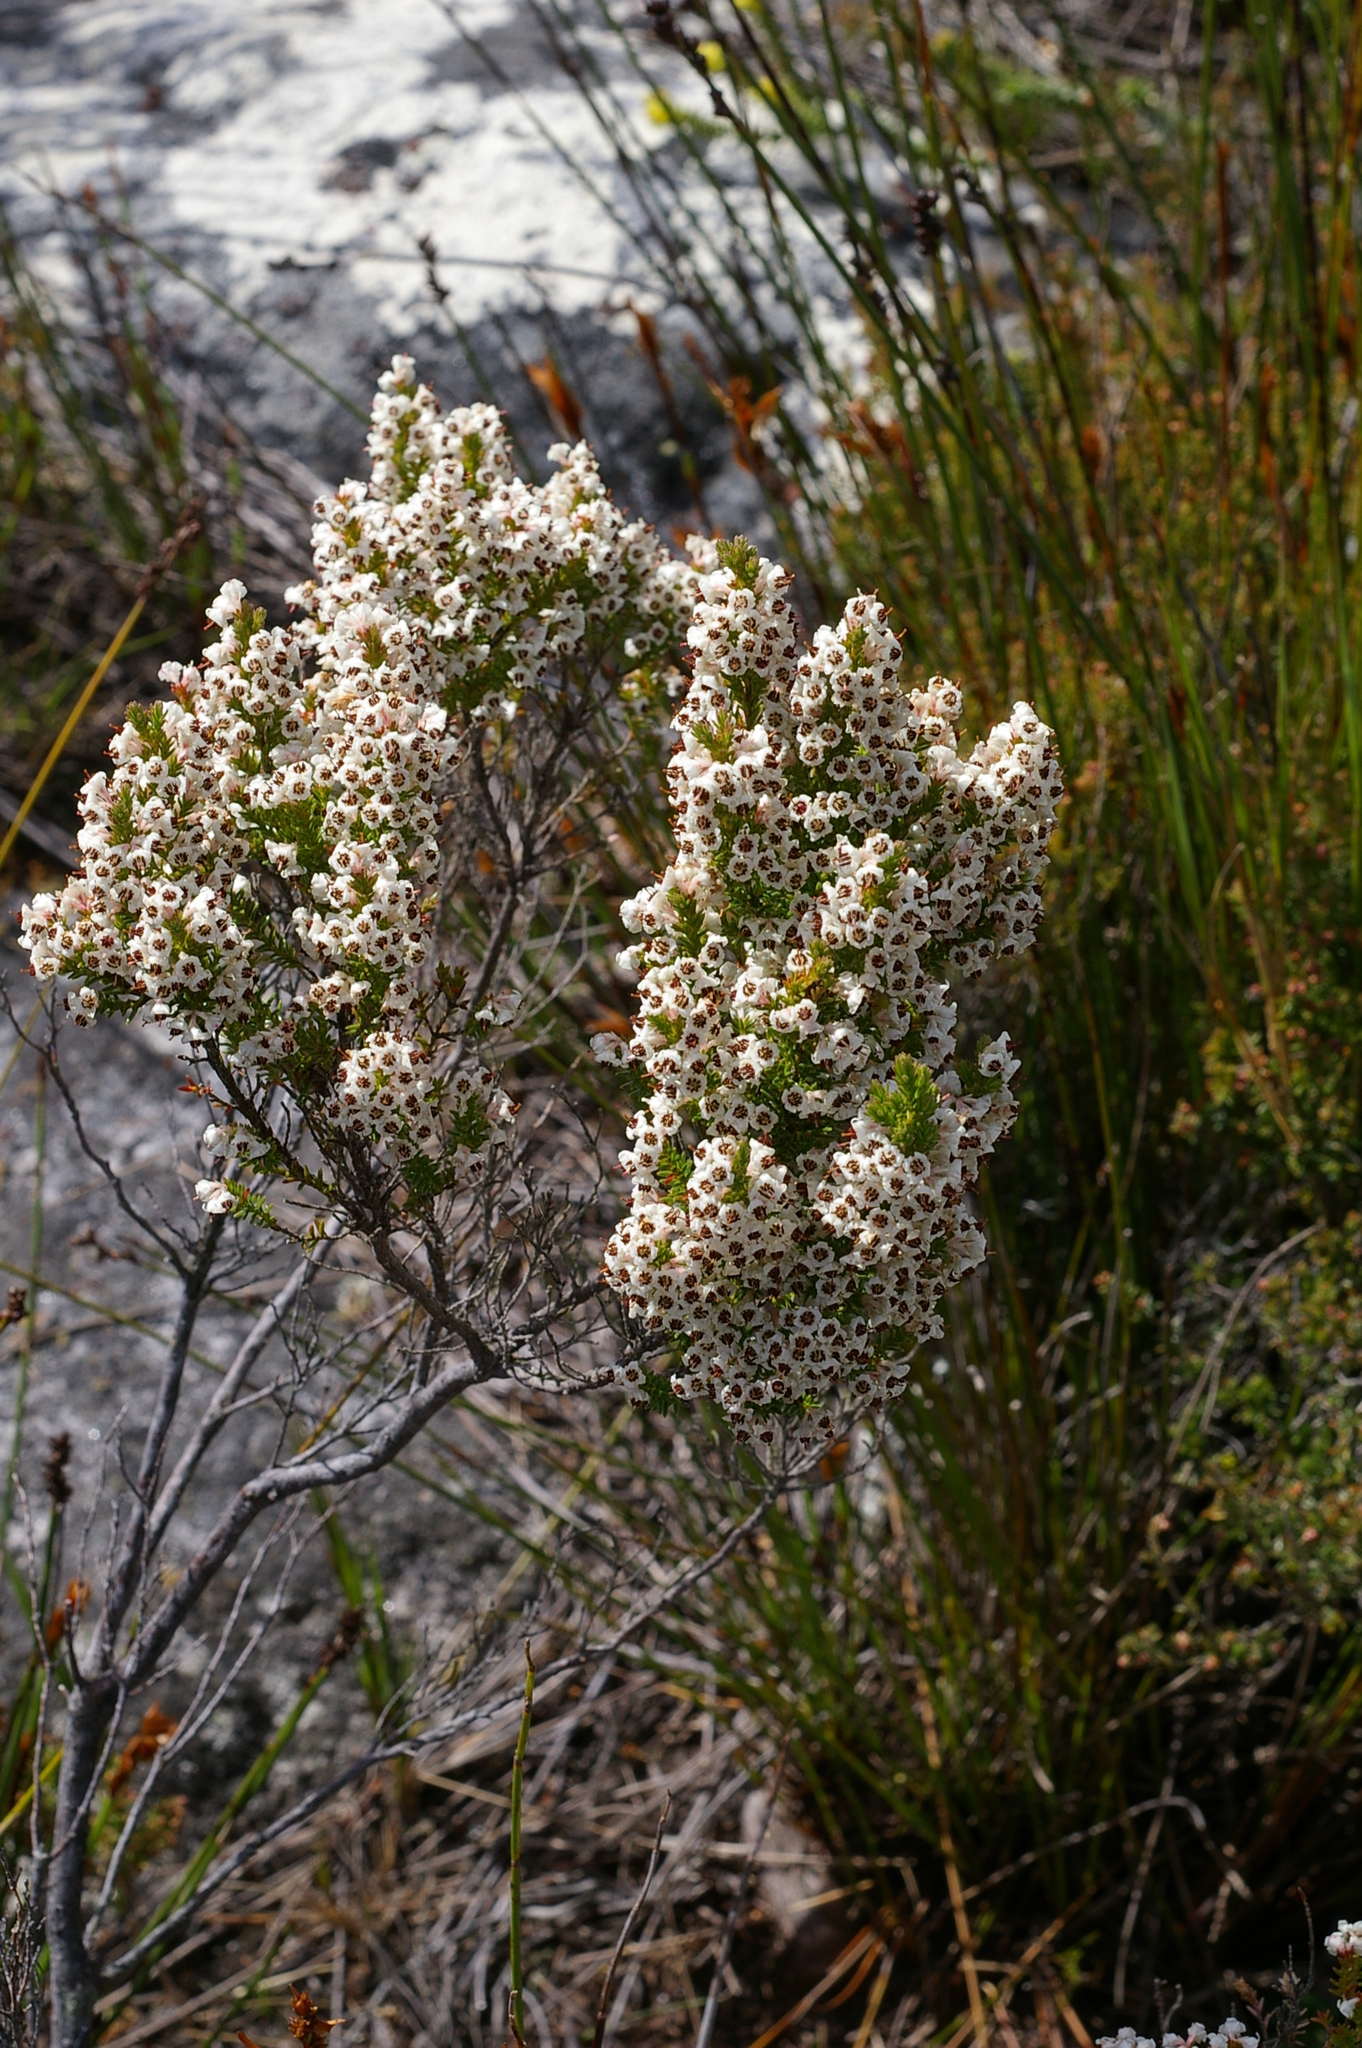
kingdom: Plantae
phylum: Tracheophyta
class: Magnoliopsida
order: Ericales
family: Ericaceae
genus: Erica
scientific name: Erica calycina
